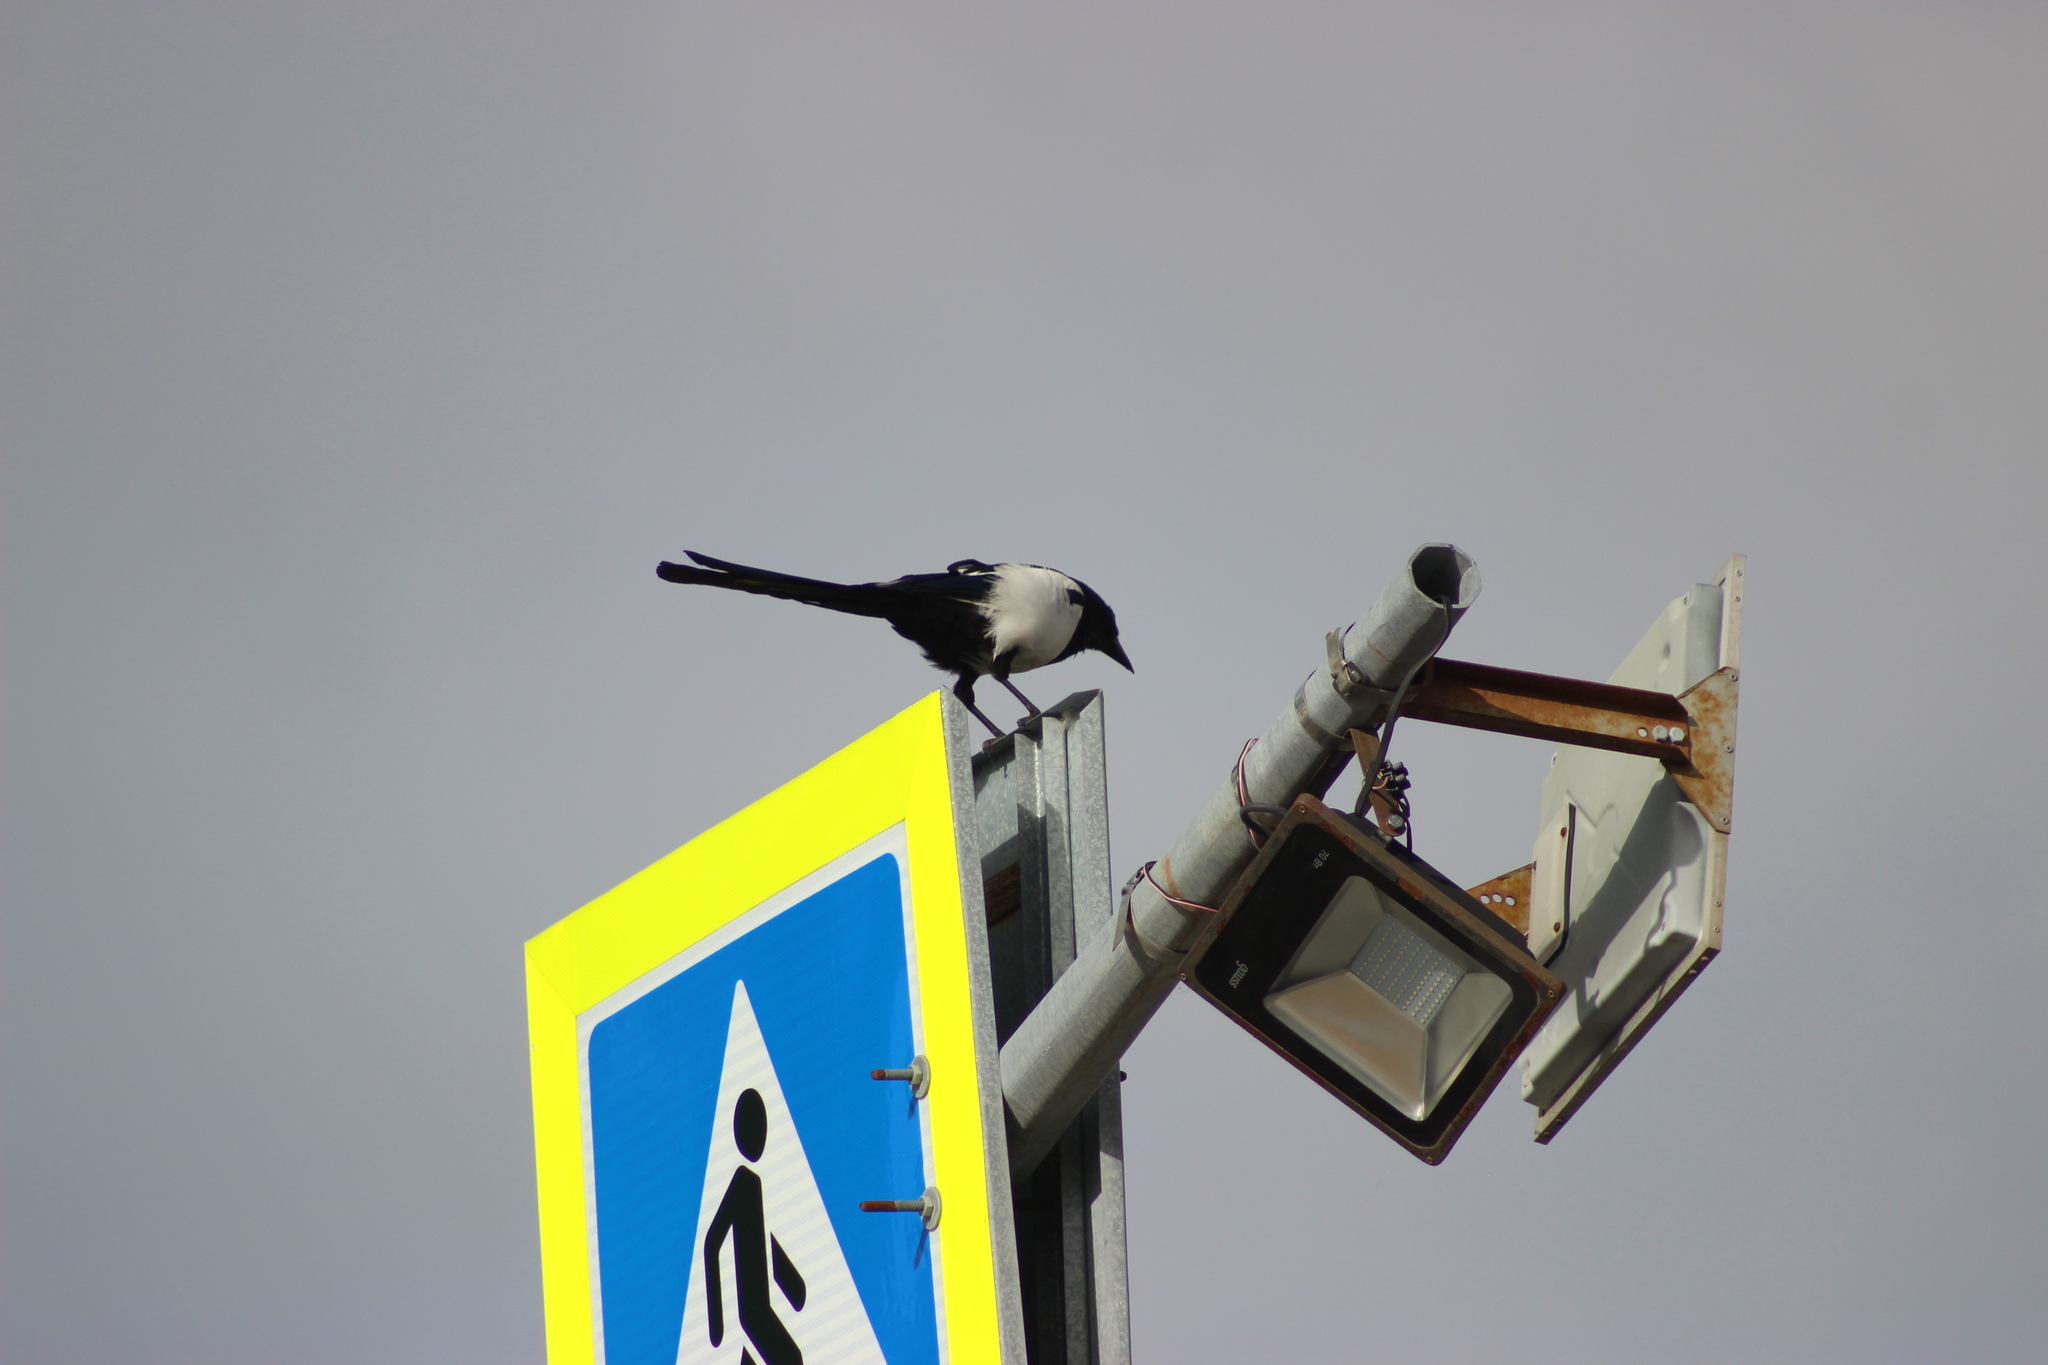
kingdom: Animalia
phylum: Chordata
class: Aves
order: Passeriformes
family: Corvidae
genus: Pica
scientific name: Pica pica
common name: Eurasian magpie
